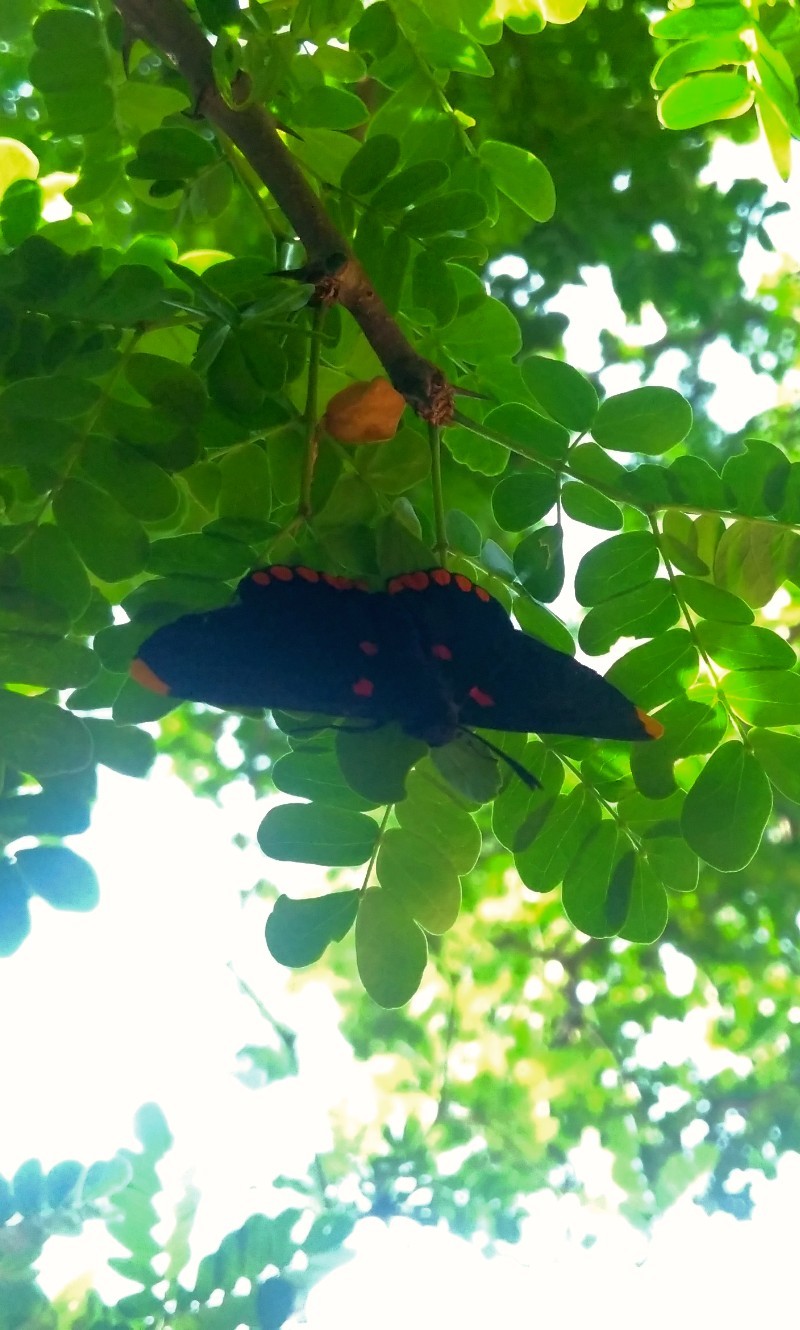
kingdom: Animalia
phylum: Arthropoda
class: Insecta
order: Lepidoptera
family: Lycaenidae
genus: Melanis
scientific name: Melanis pixe
